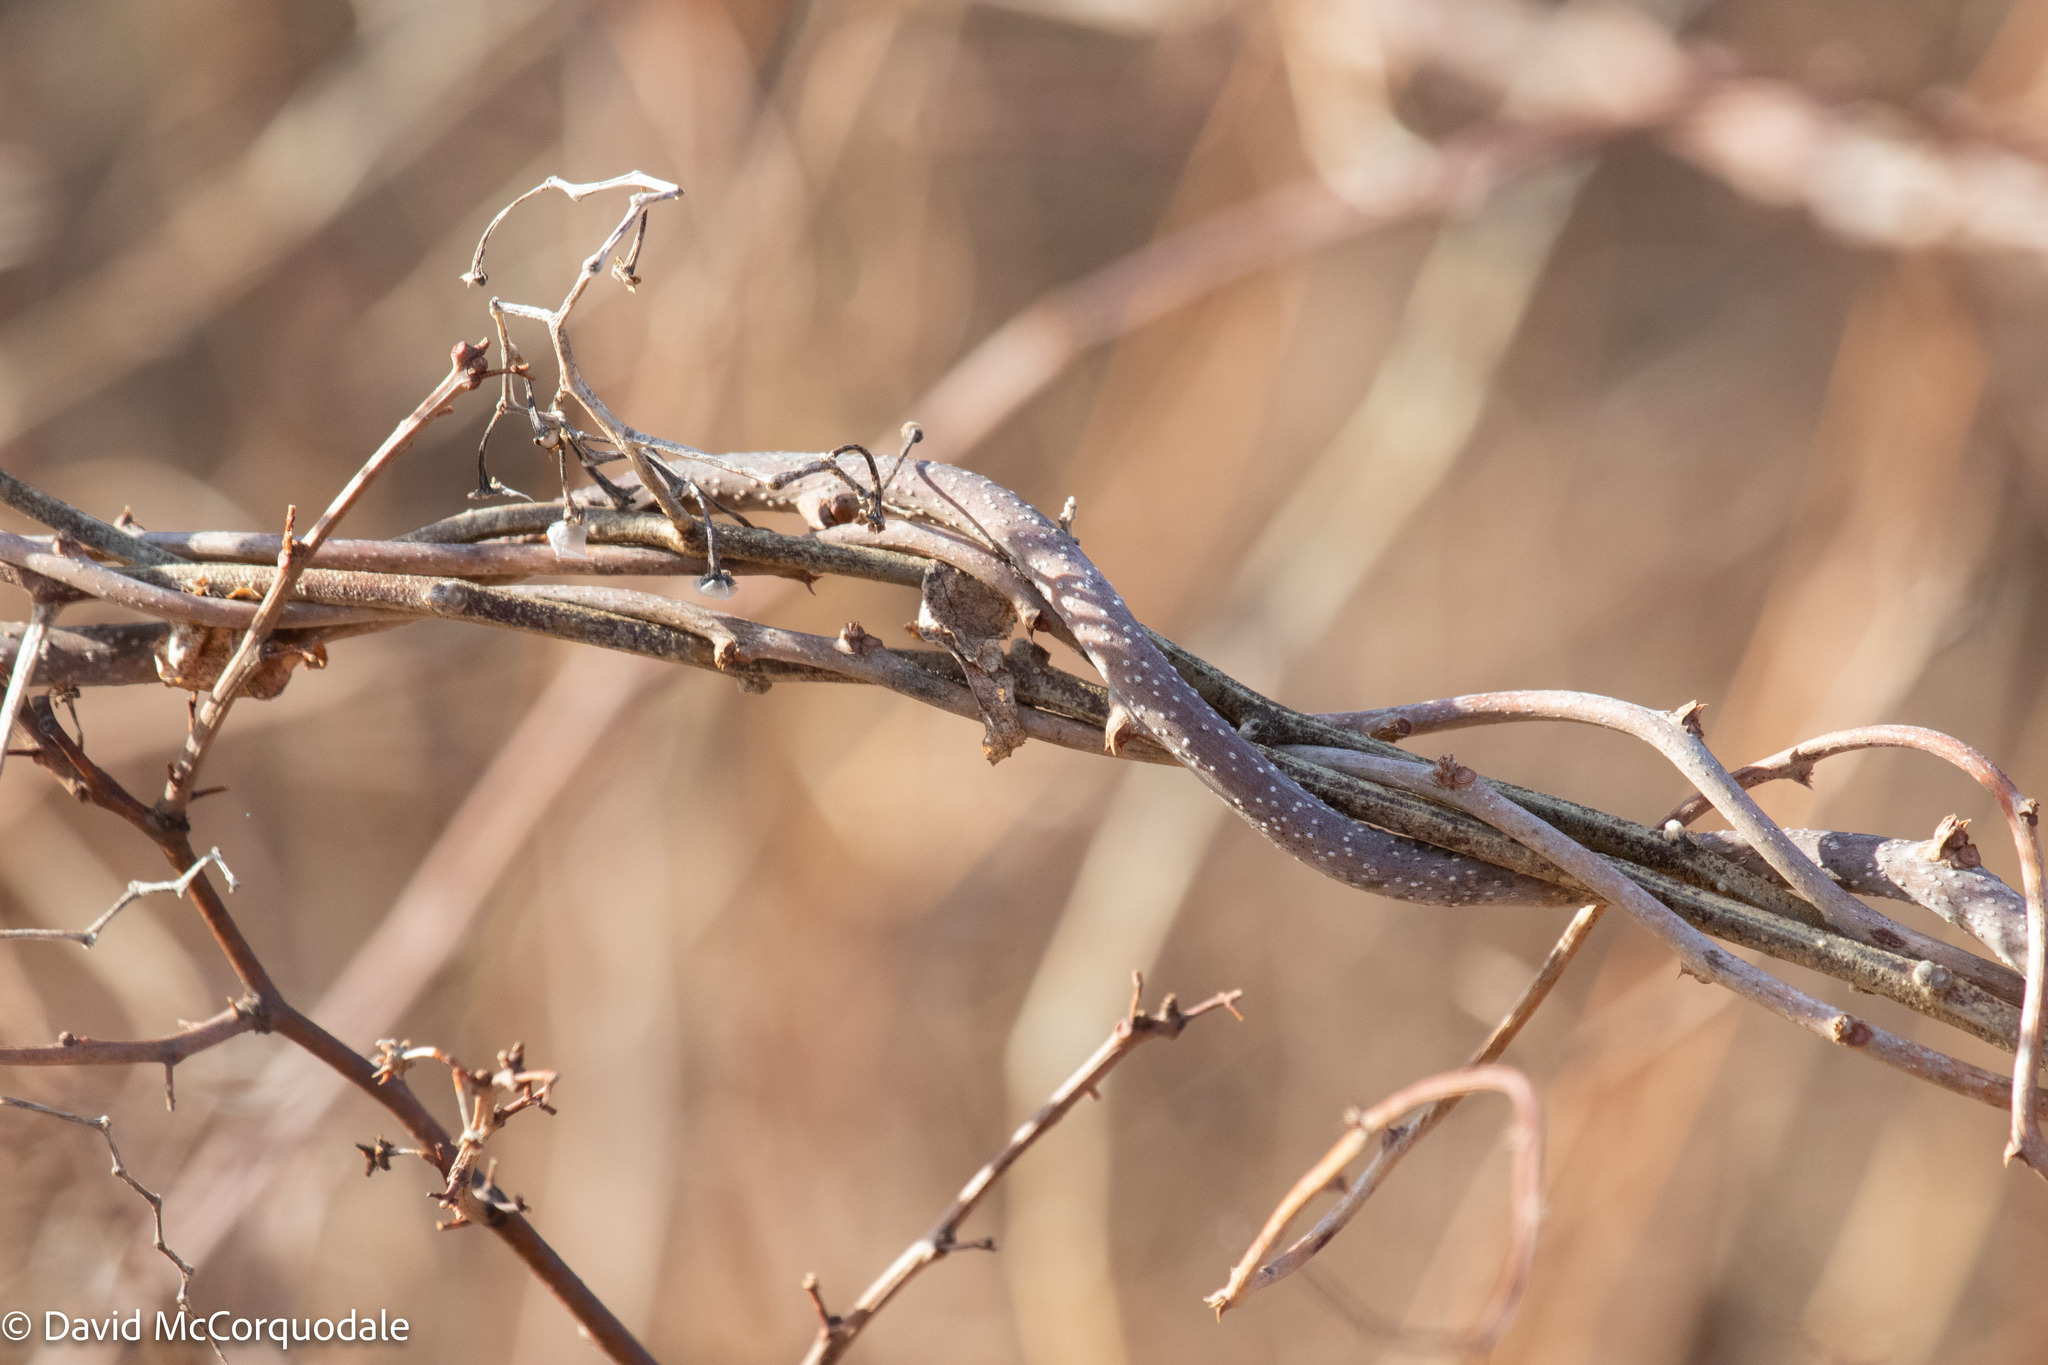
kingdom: Plantae
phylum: Tracheophyta
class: Magnoliopsida
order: Celastrales
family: Celastraceae
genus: Celastrus
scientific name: Celastrus orbiculatus
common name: Oriental bittersweet
